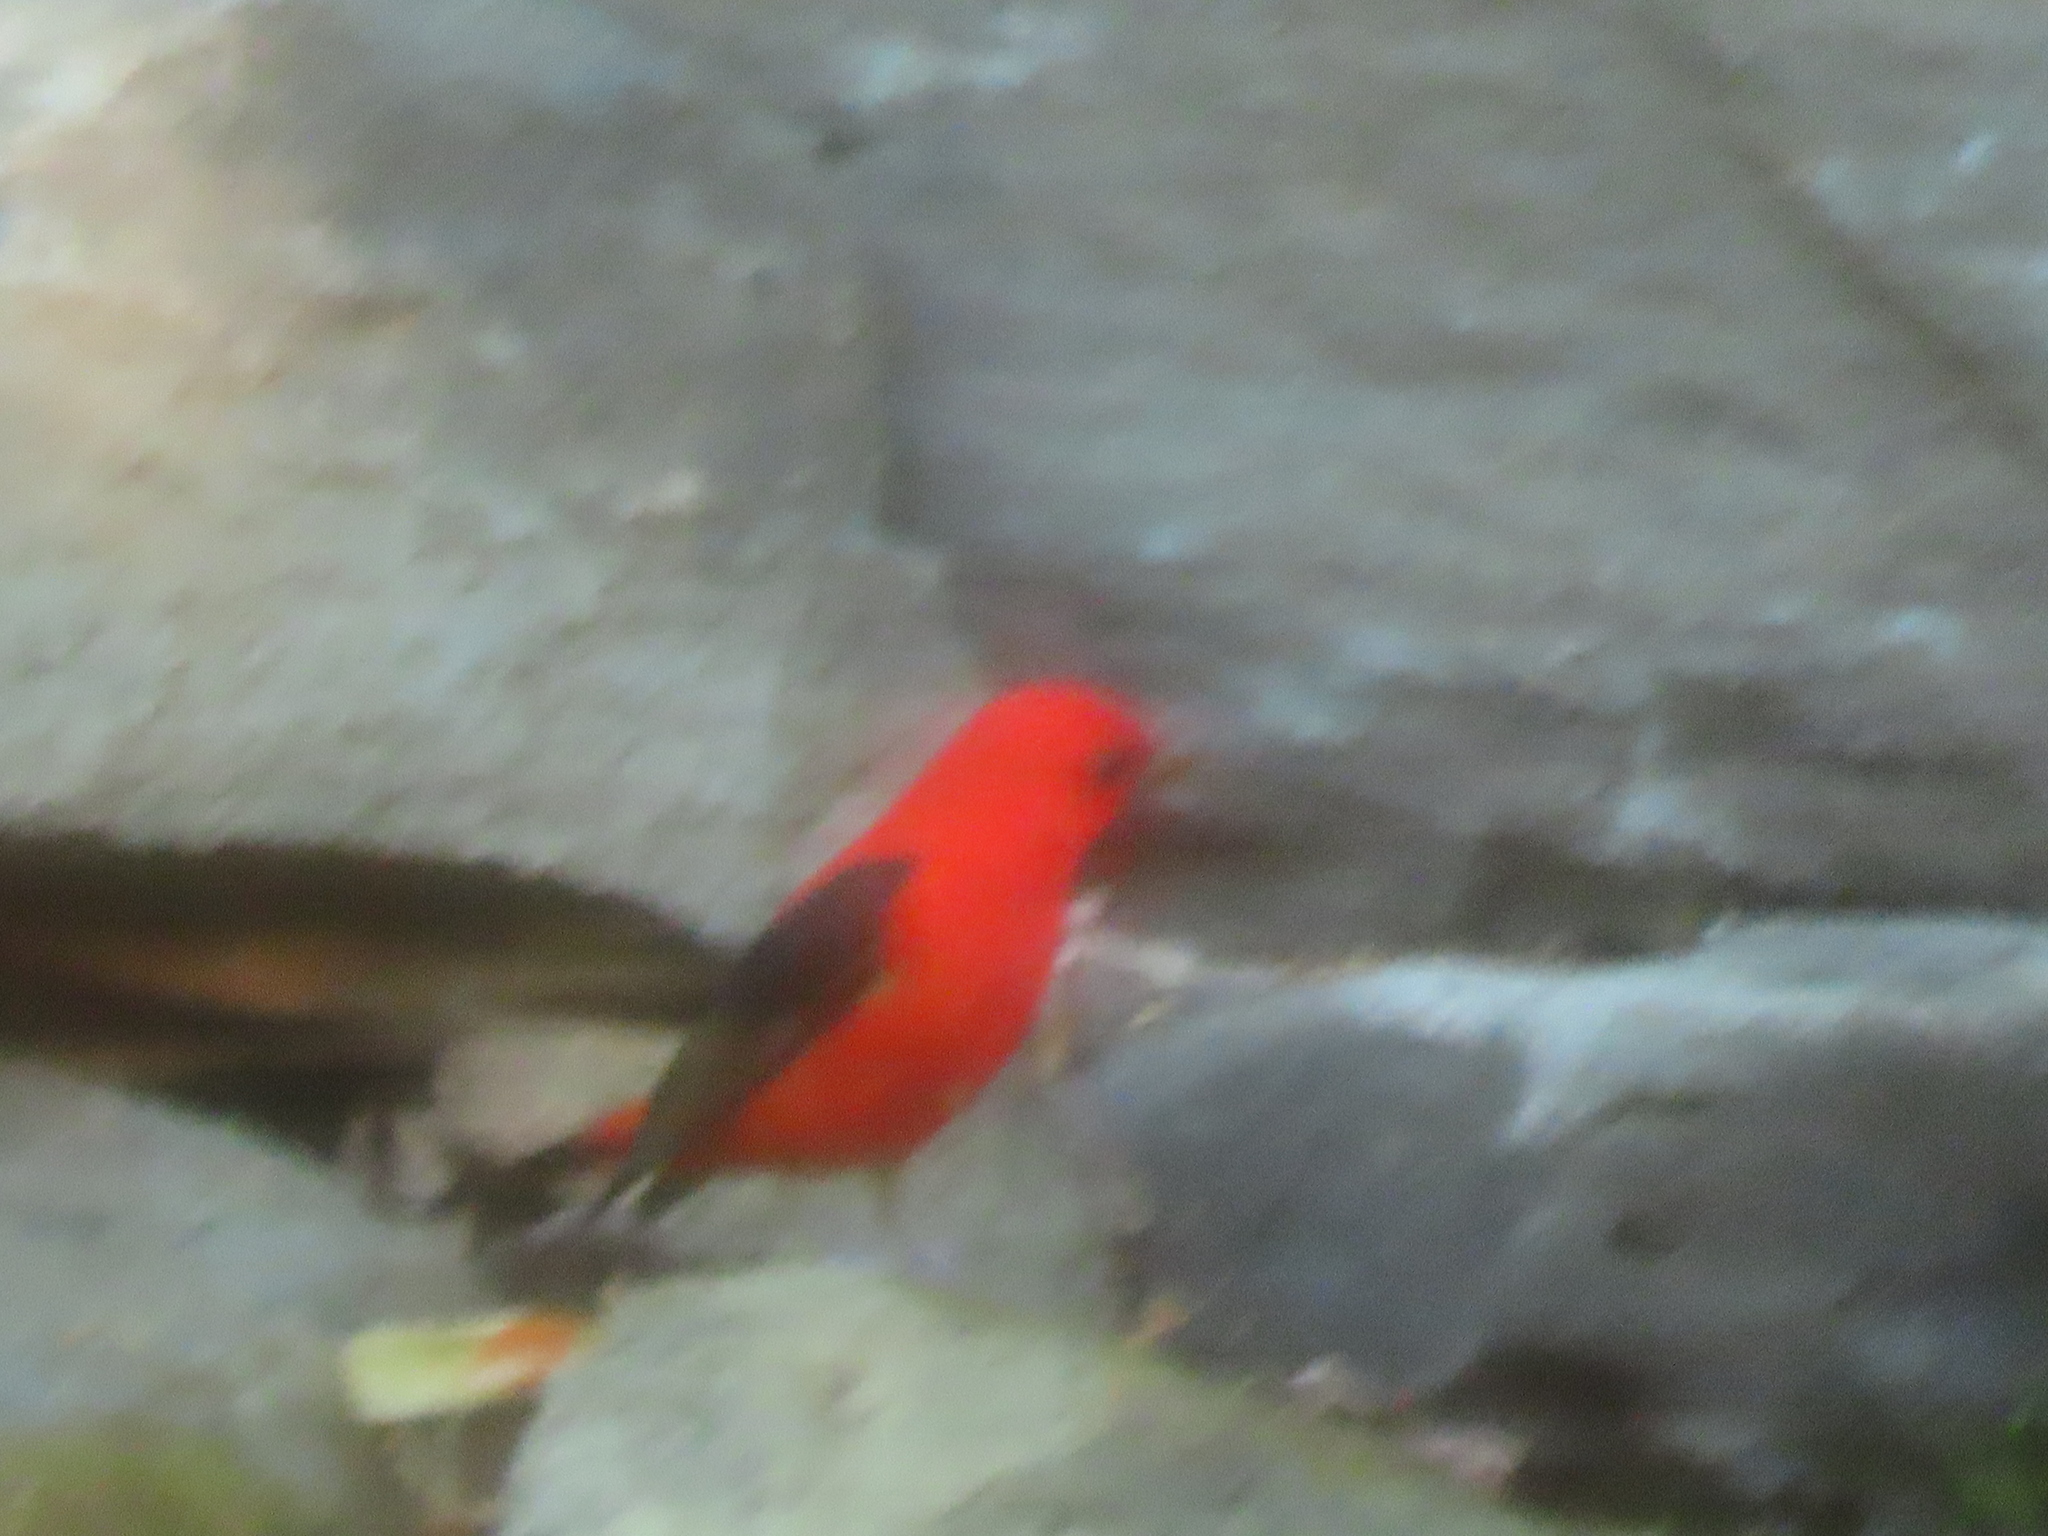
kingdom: Animalia
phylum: Chordata
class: Aves
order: Passeriformes
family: Cardinalidae
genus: Piranga
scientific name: Piranga olivacea
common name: Scarlet tanager
